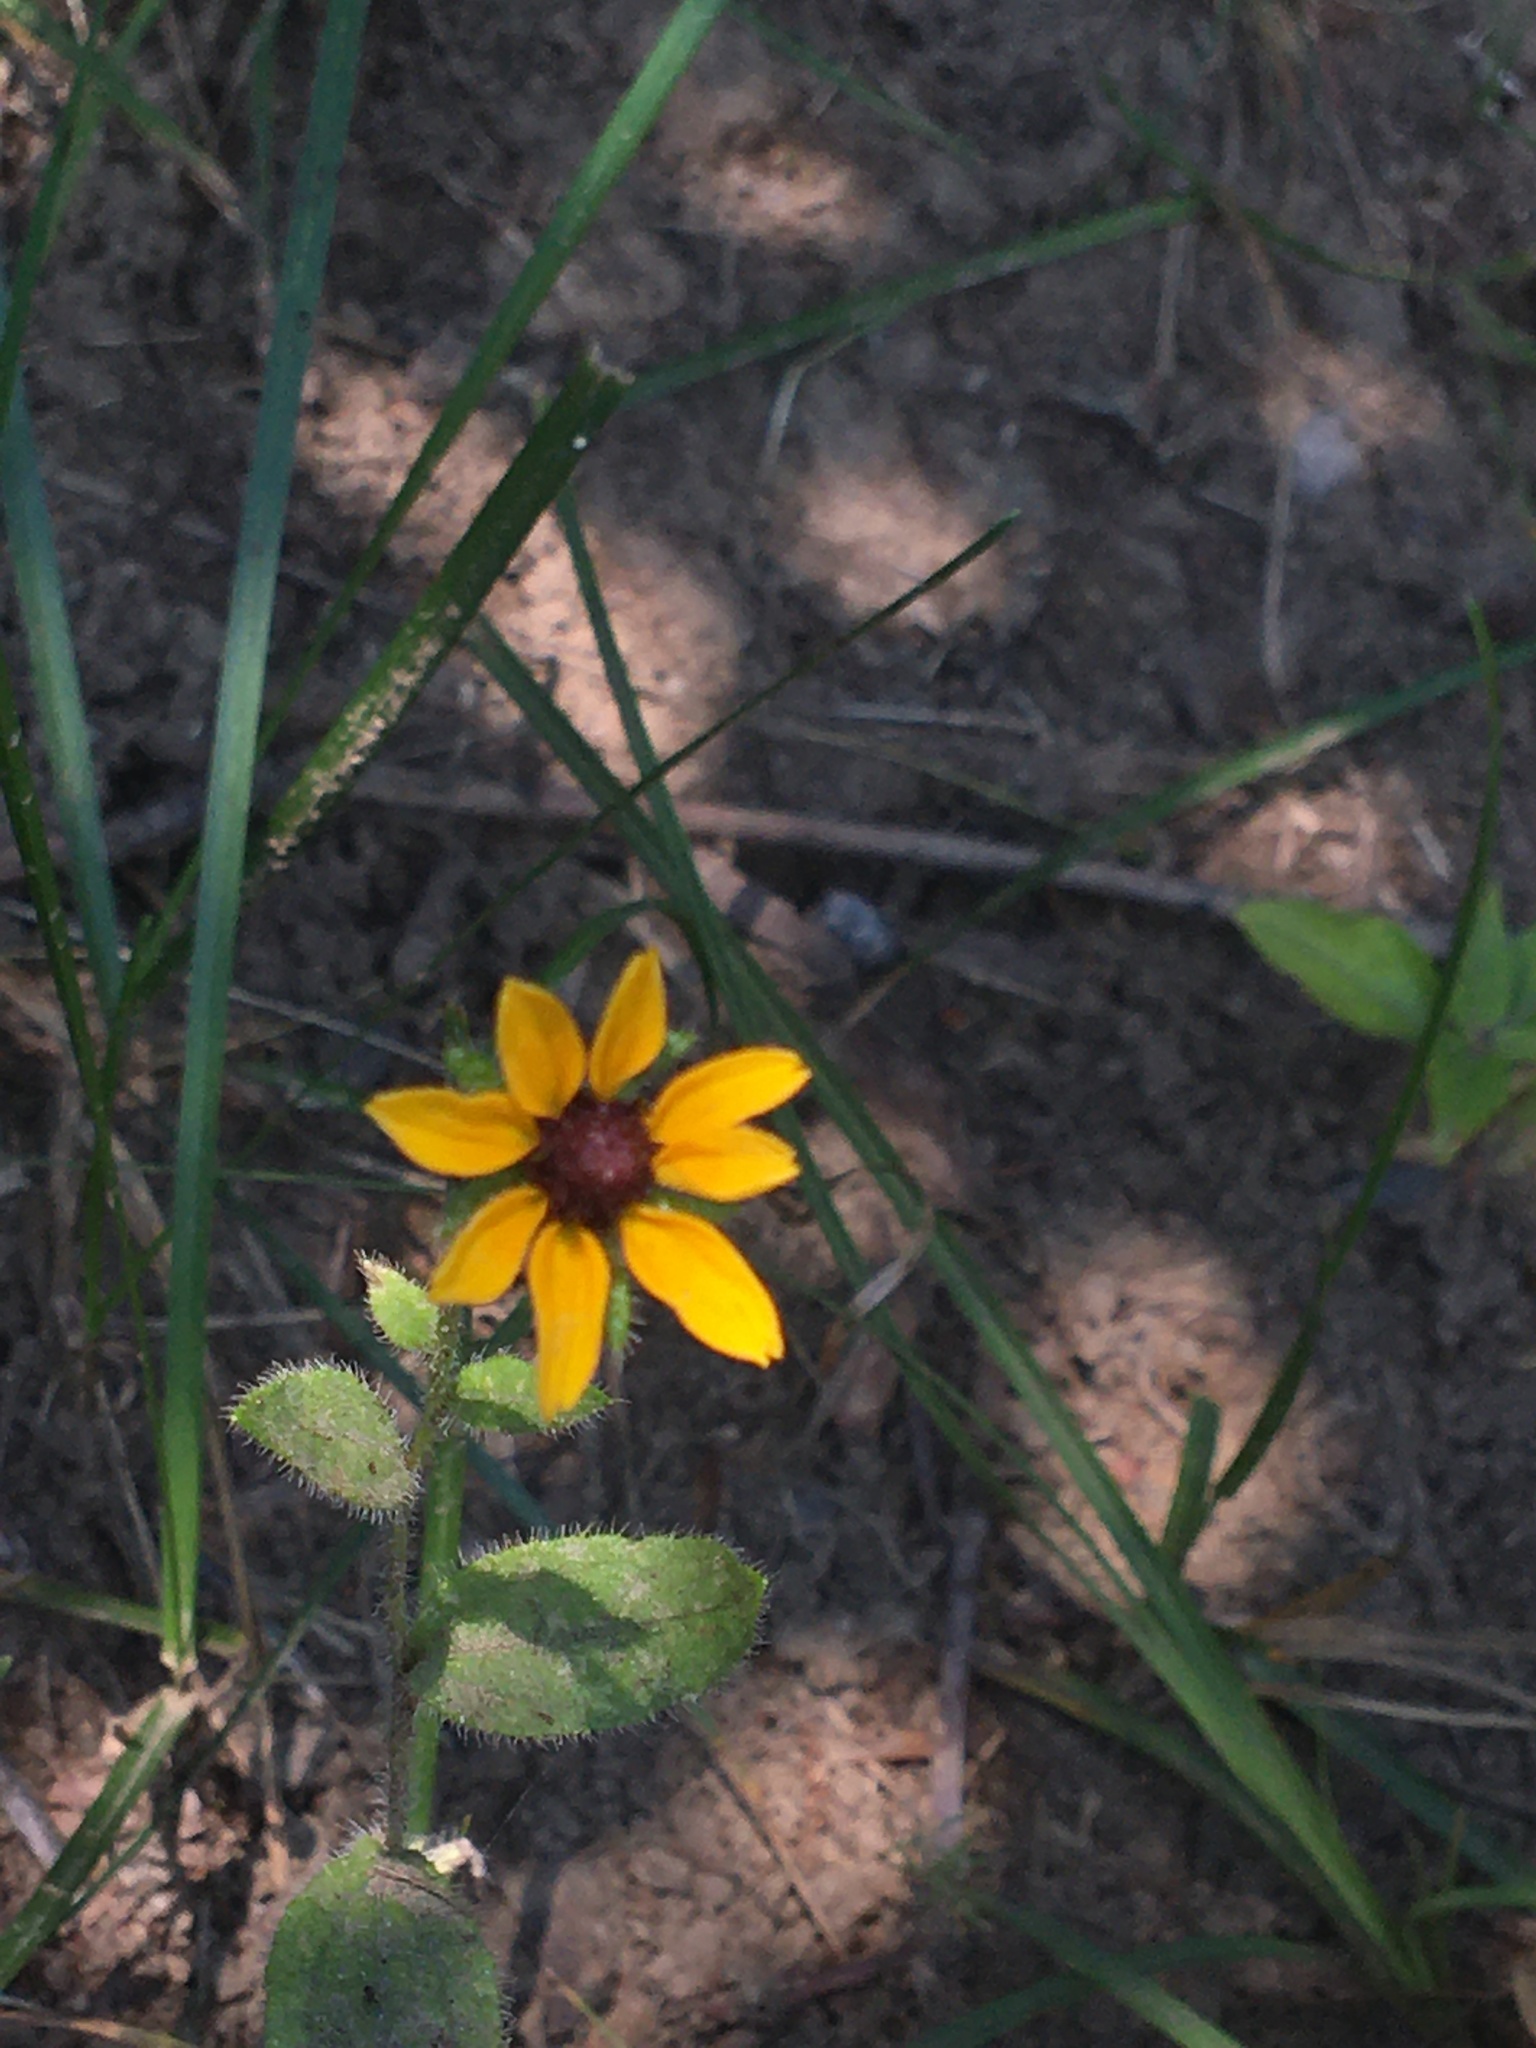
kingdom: Plantae
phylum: Tracheophyta
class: Magnoliopsida
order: Asterales
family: Asteraceae
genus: Rudbeckia
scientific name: Rudbeckia hirta
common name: Black-eyed-susan
